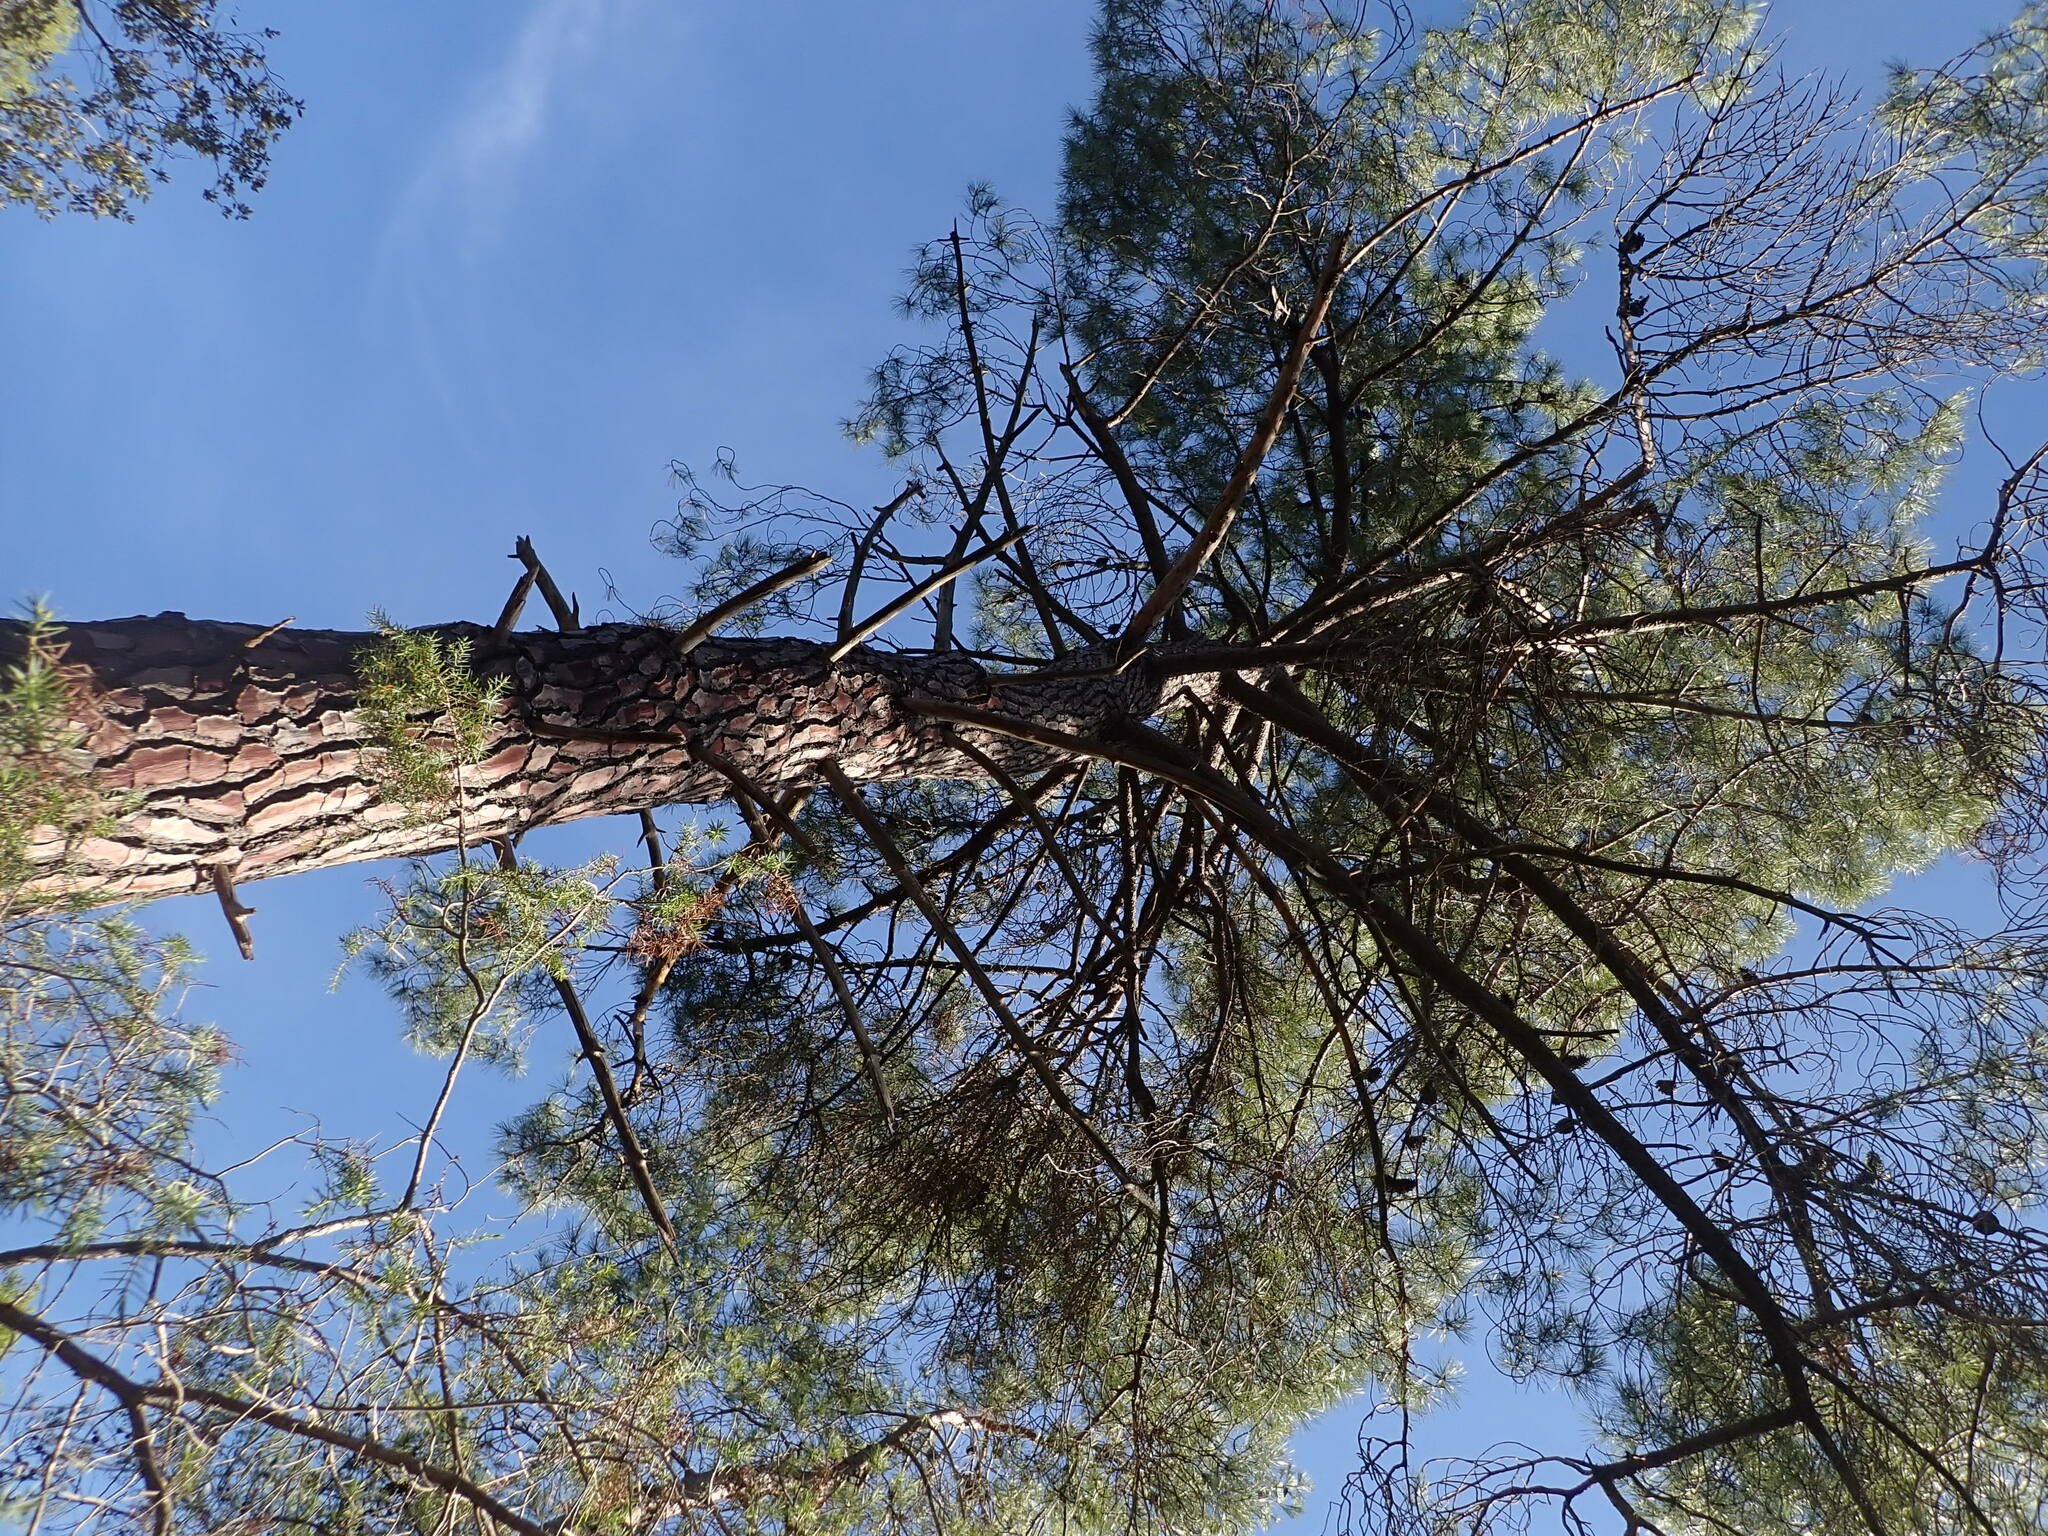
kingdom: Plantae
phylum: Tracheophyta
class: Pinopsida
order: Pinales
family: Pinaceae
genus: Pinus
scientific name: Pinus sylvestris
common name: Scots pine
